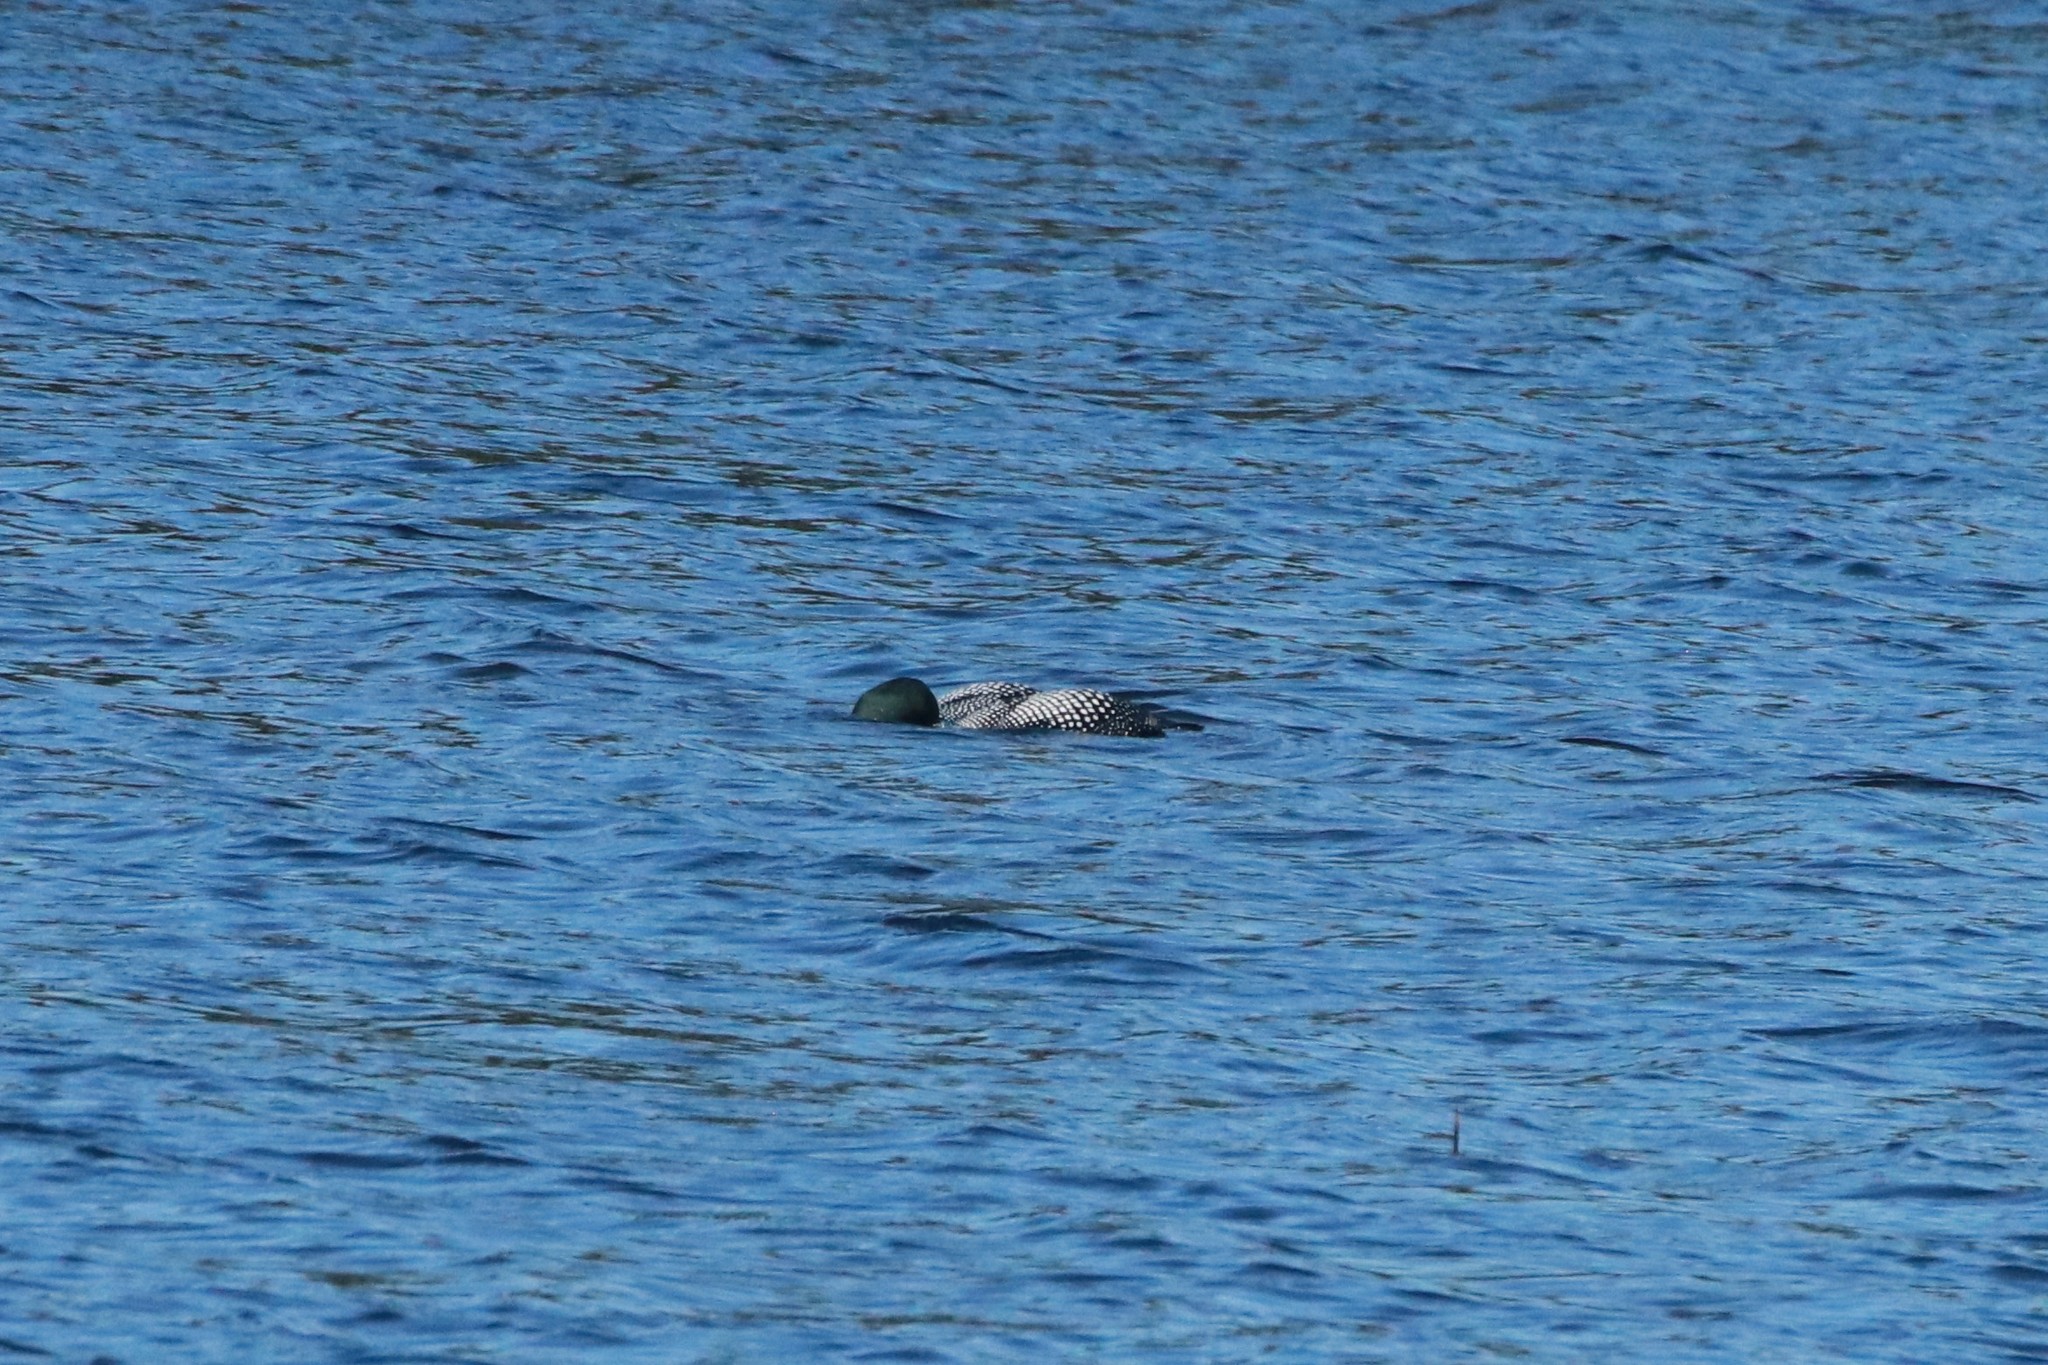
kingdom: Animalia
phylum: Chordata
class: Aves
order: Gaviiformes
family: Gaviidae
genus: Gavia
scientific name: Gavia immer
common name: Common loon
